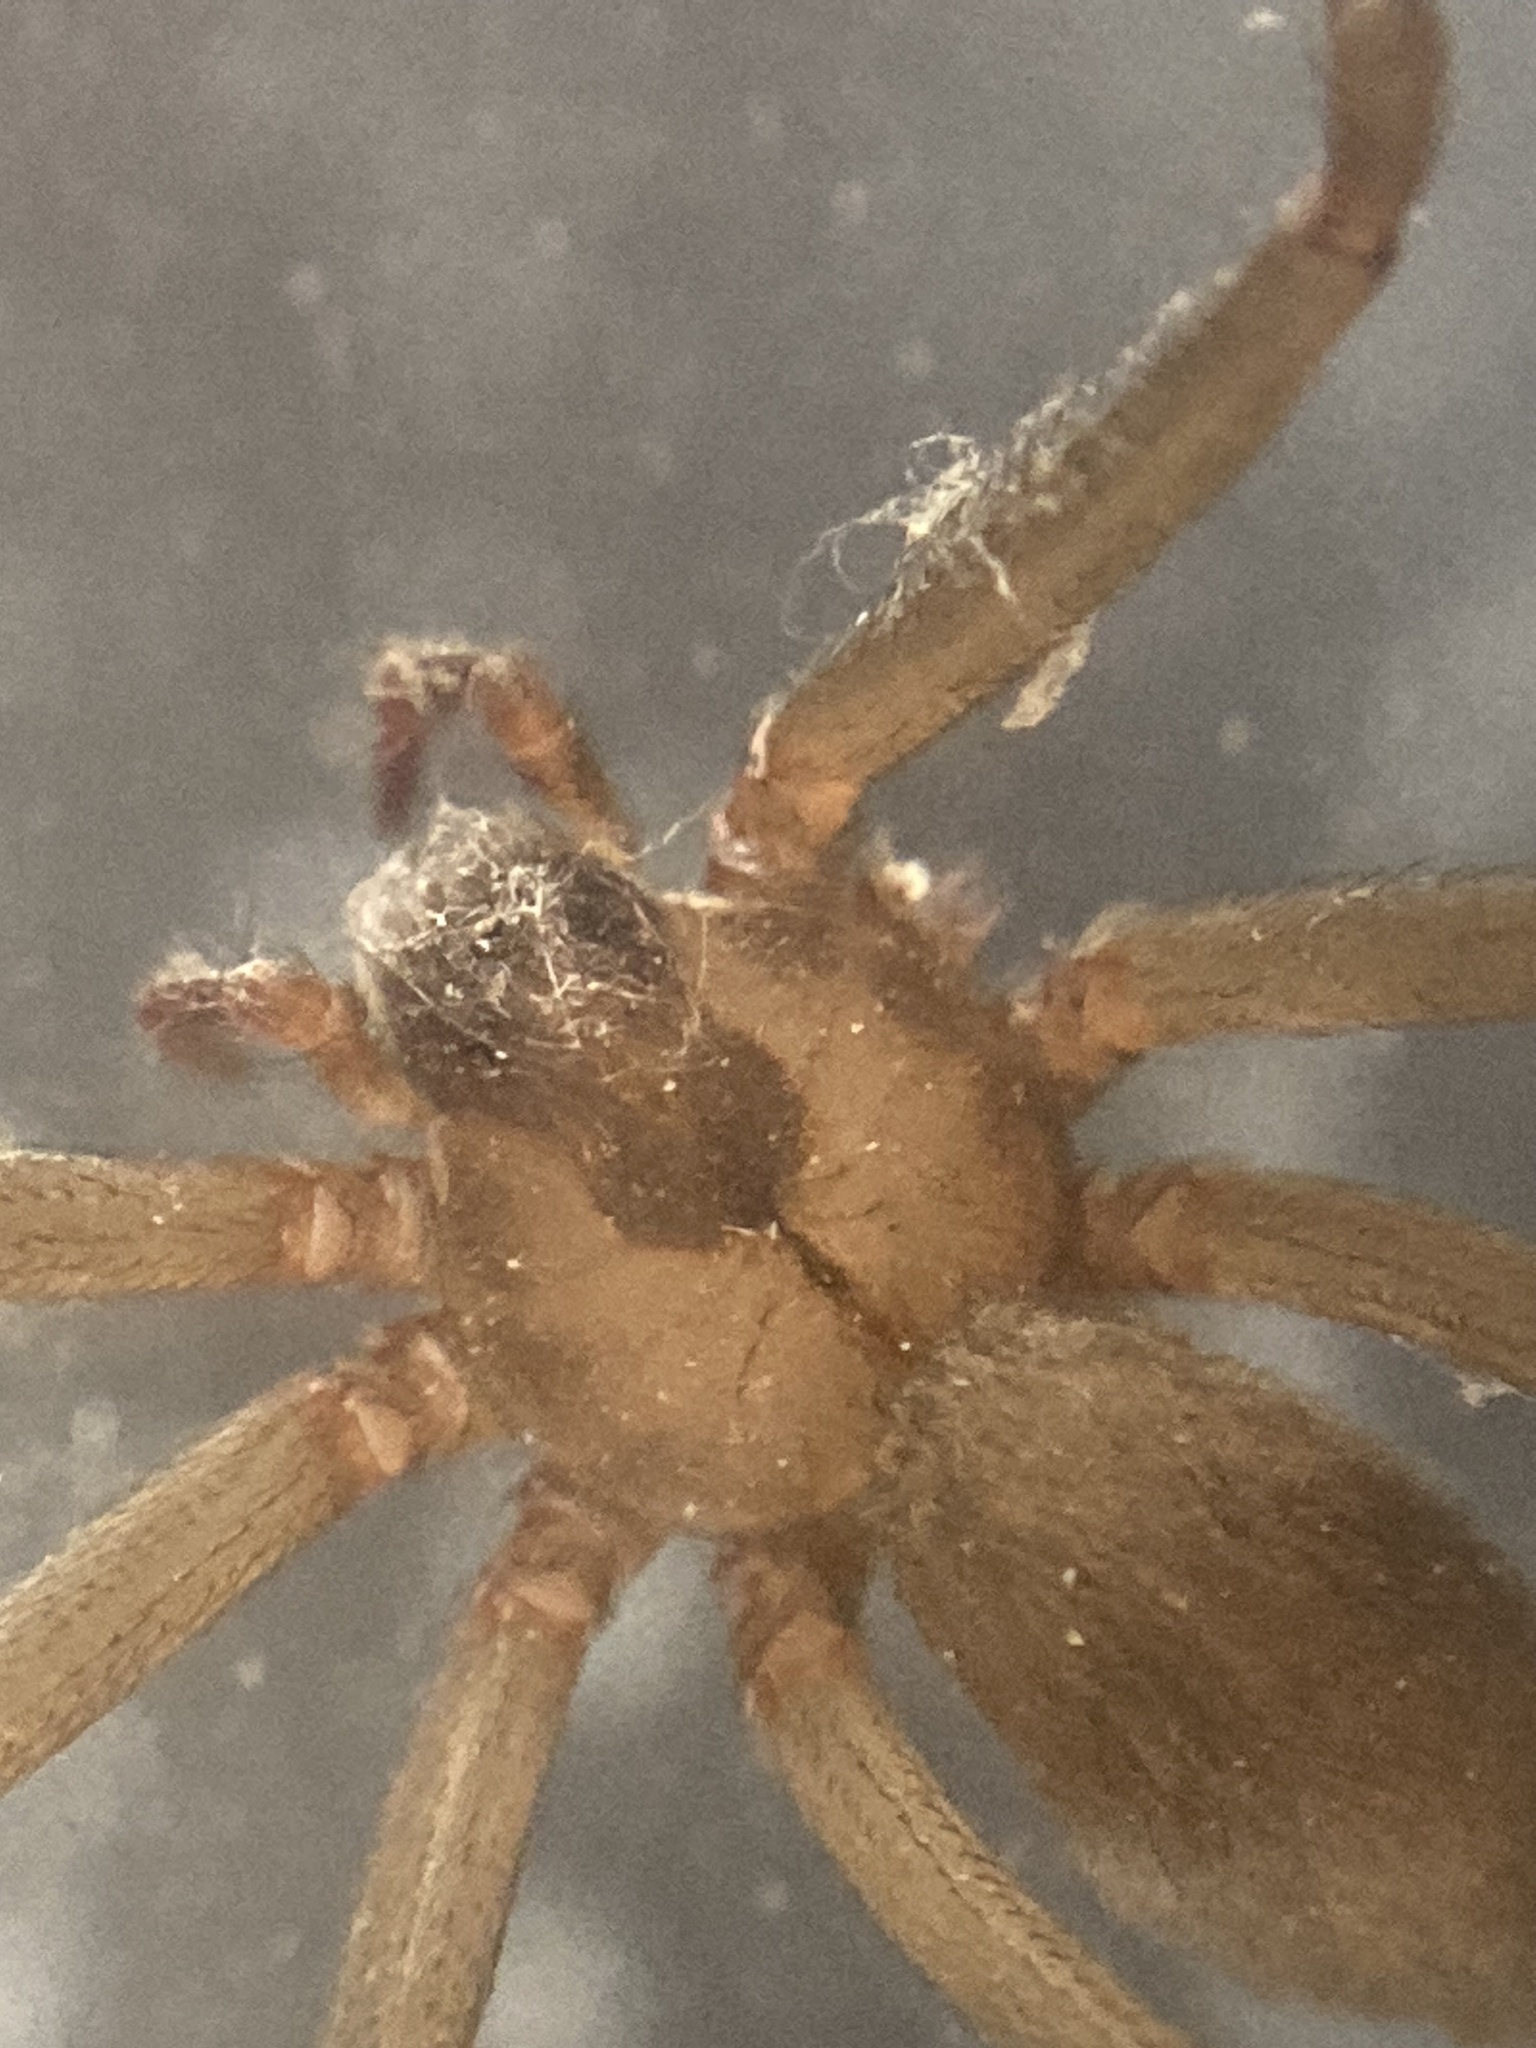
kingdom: Animalia
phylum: Arthropoda
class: Arachnida
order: Araneae
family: Sicariidae
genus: Loxosceles
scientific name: Loxosceles reclusa
